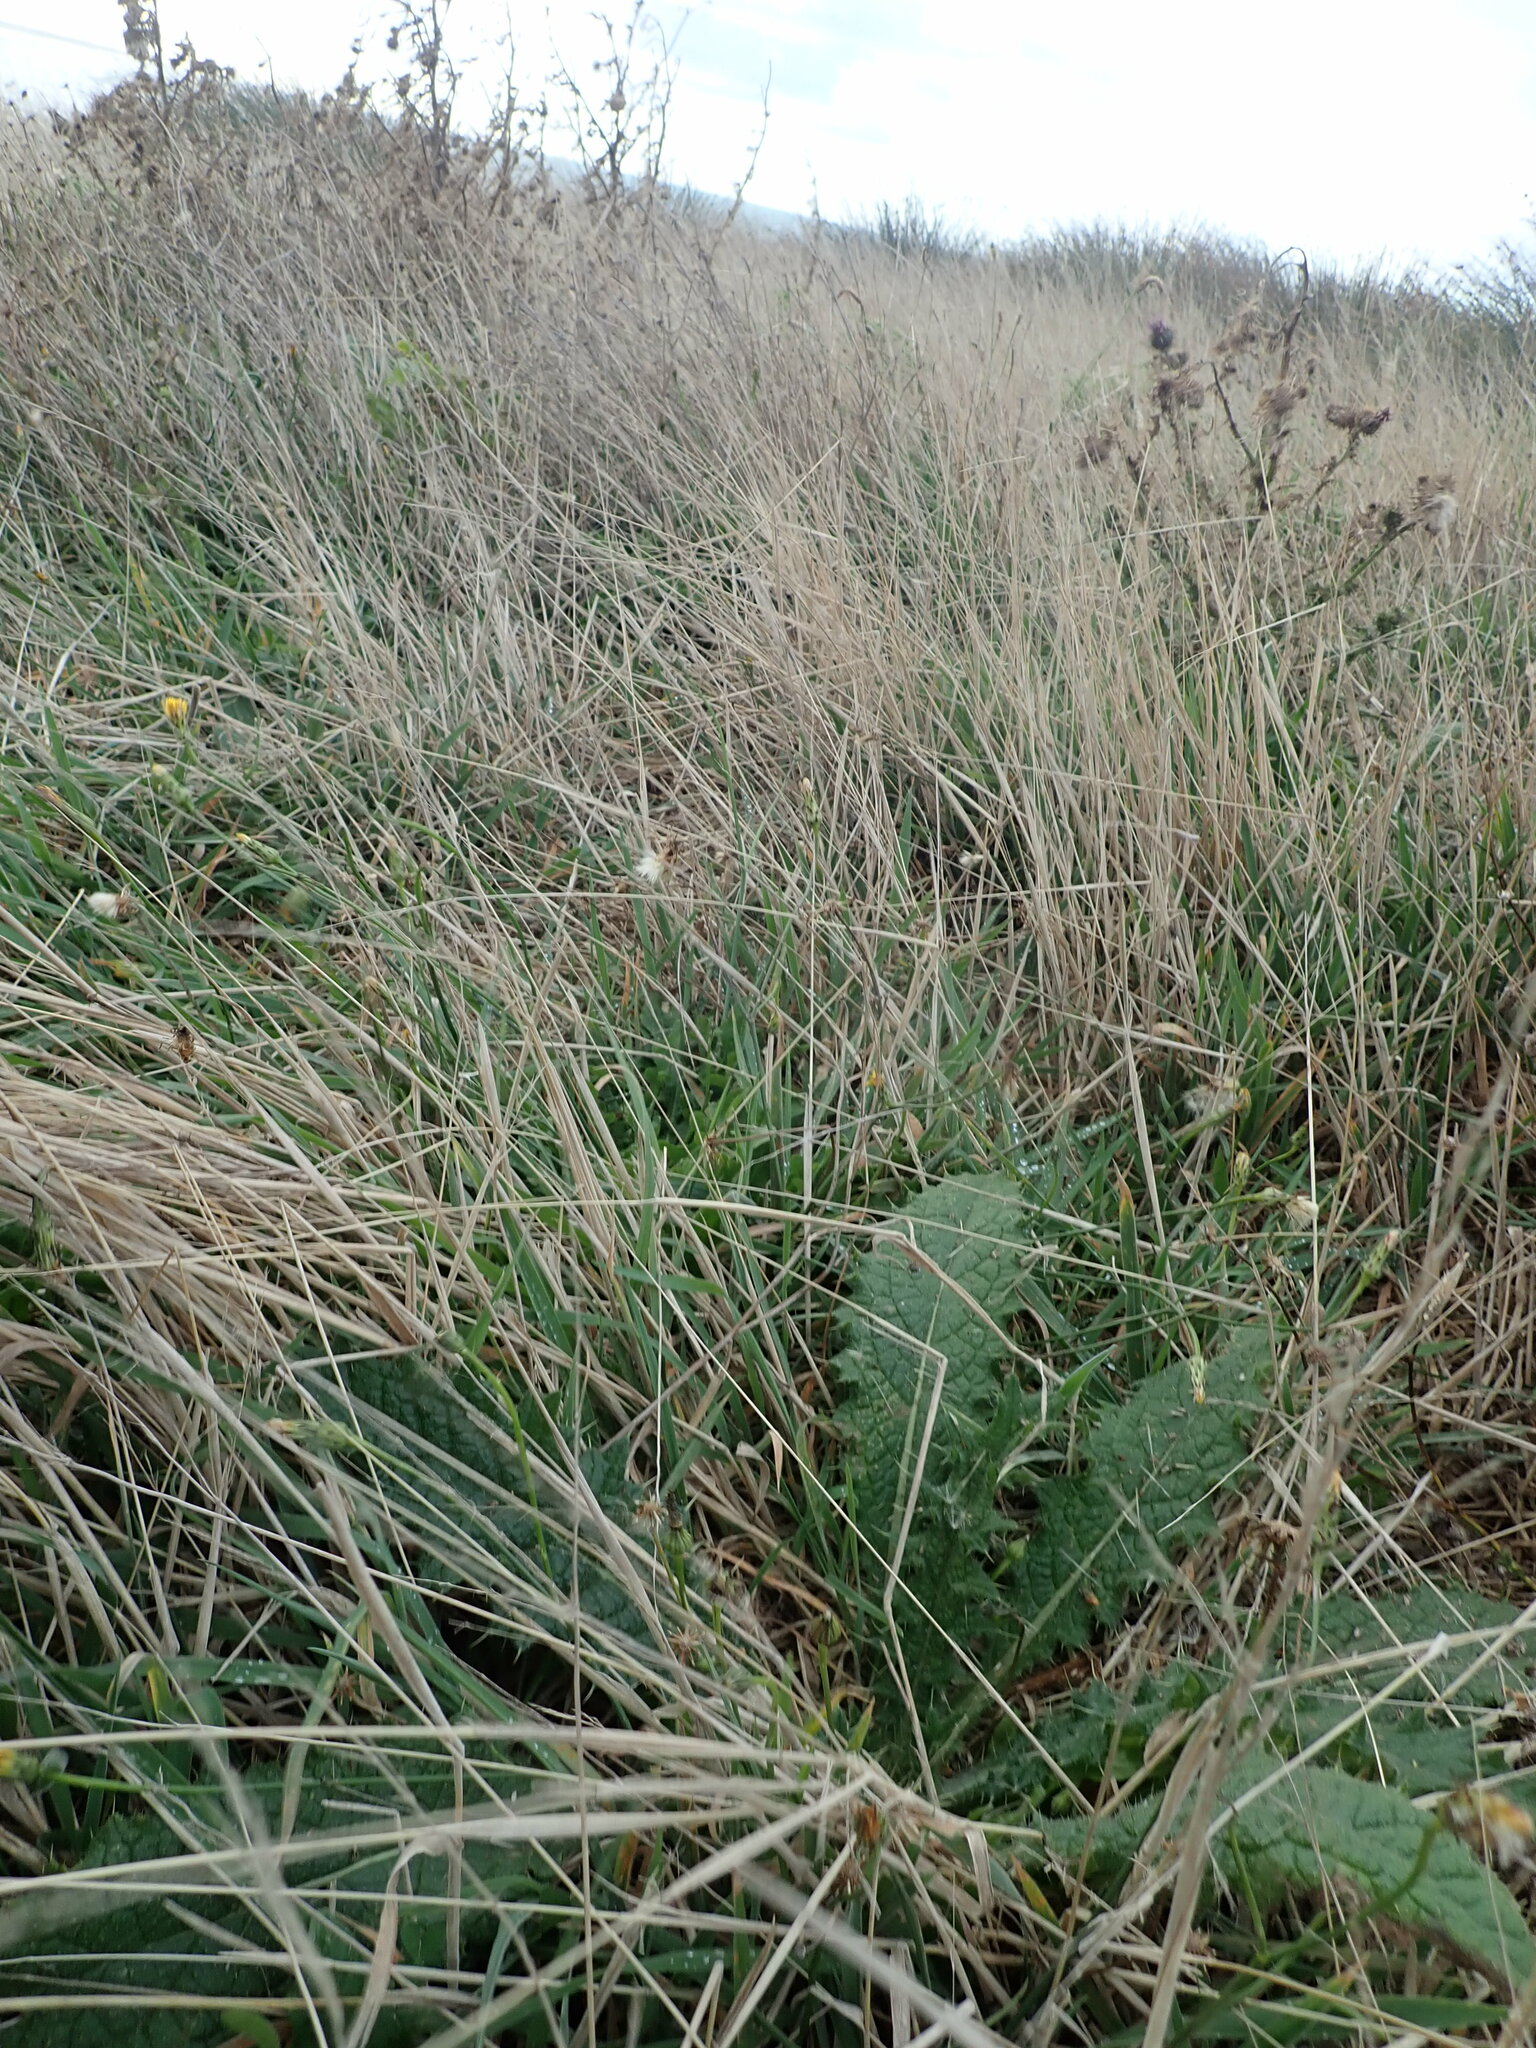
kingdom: Plantae
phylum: Tracheophyta
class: Magnoliopsida
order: Asterales
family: Asteraceae
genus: Cirsium
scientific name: Cirsium vulgare
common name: Bull thistle
